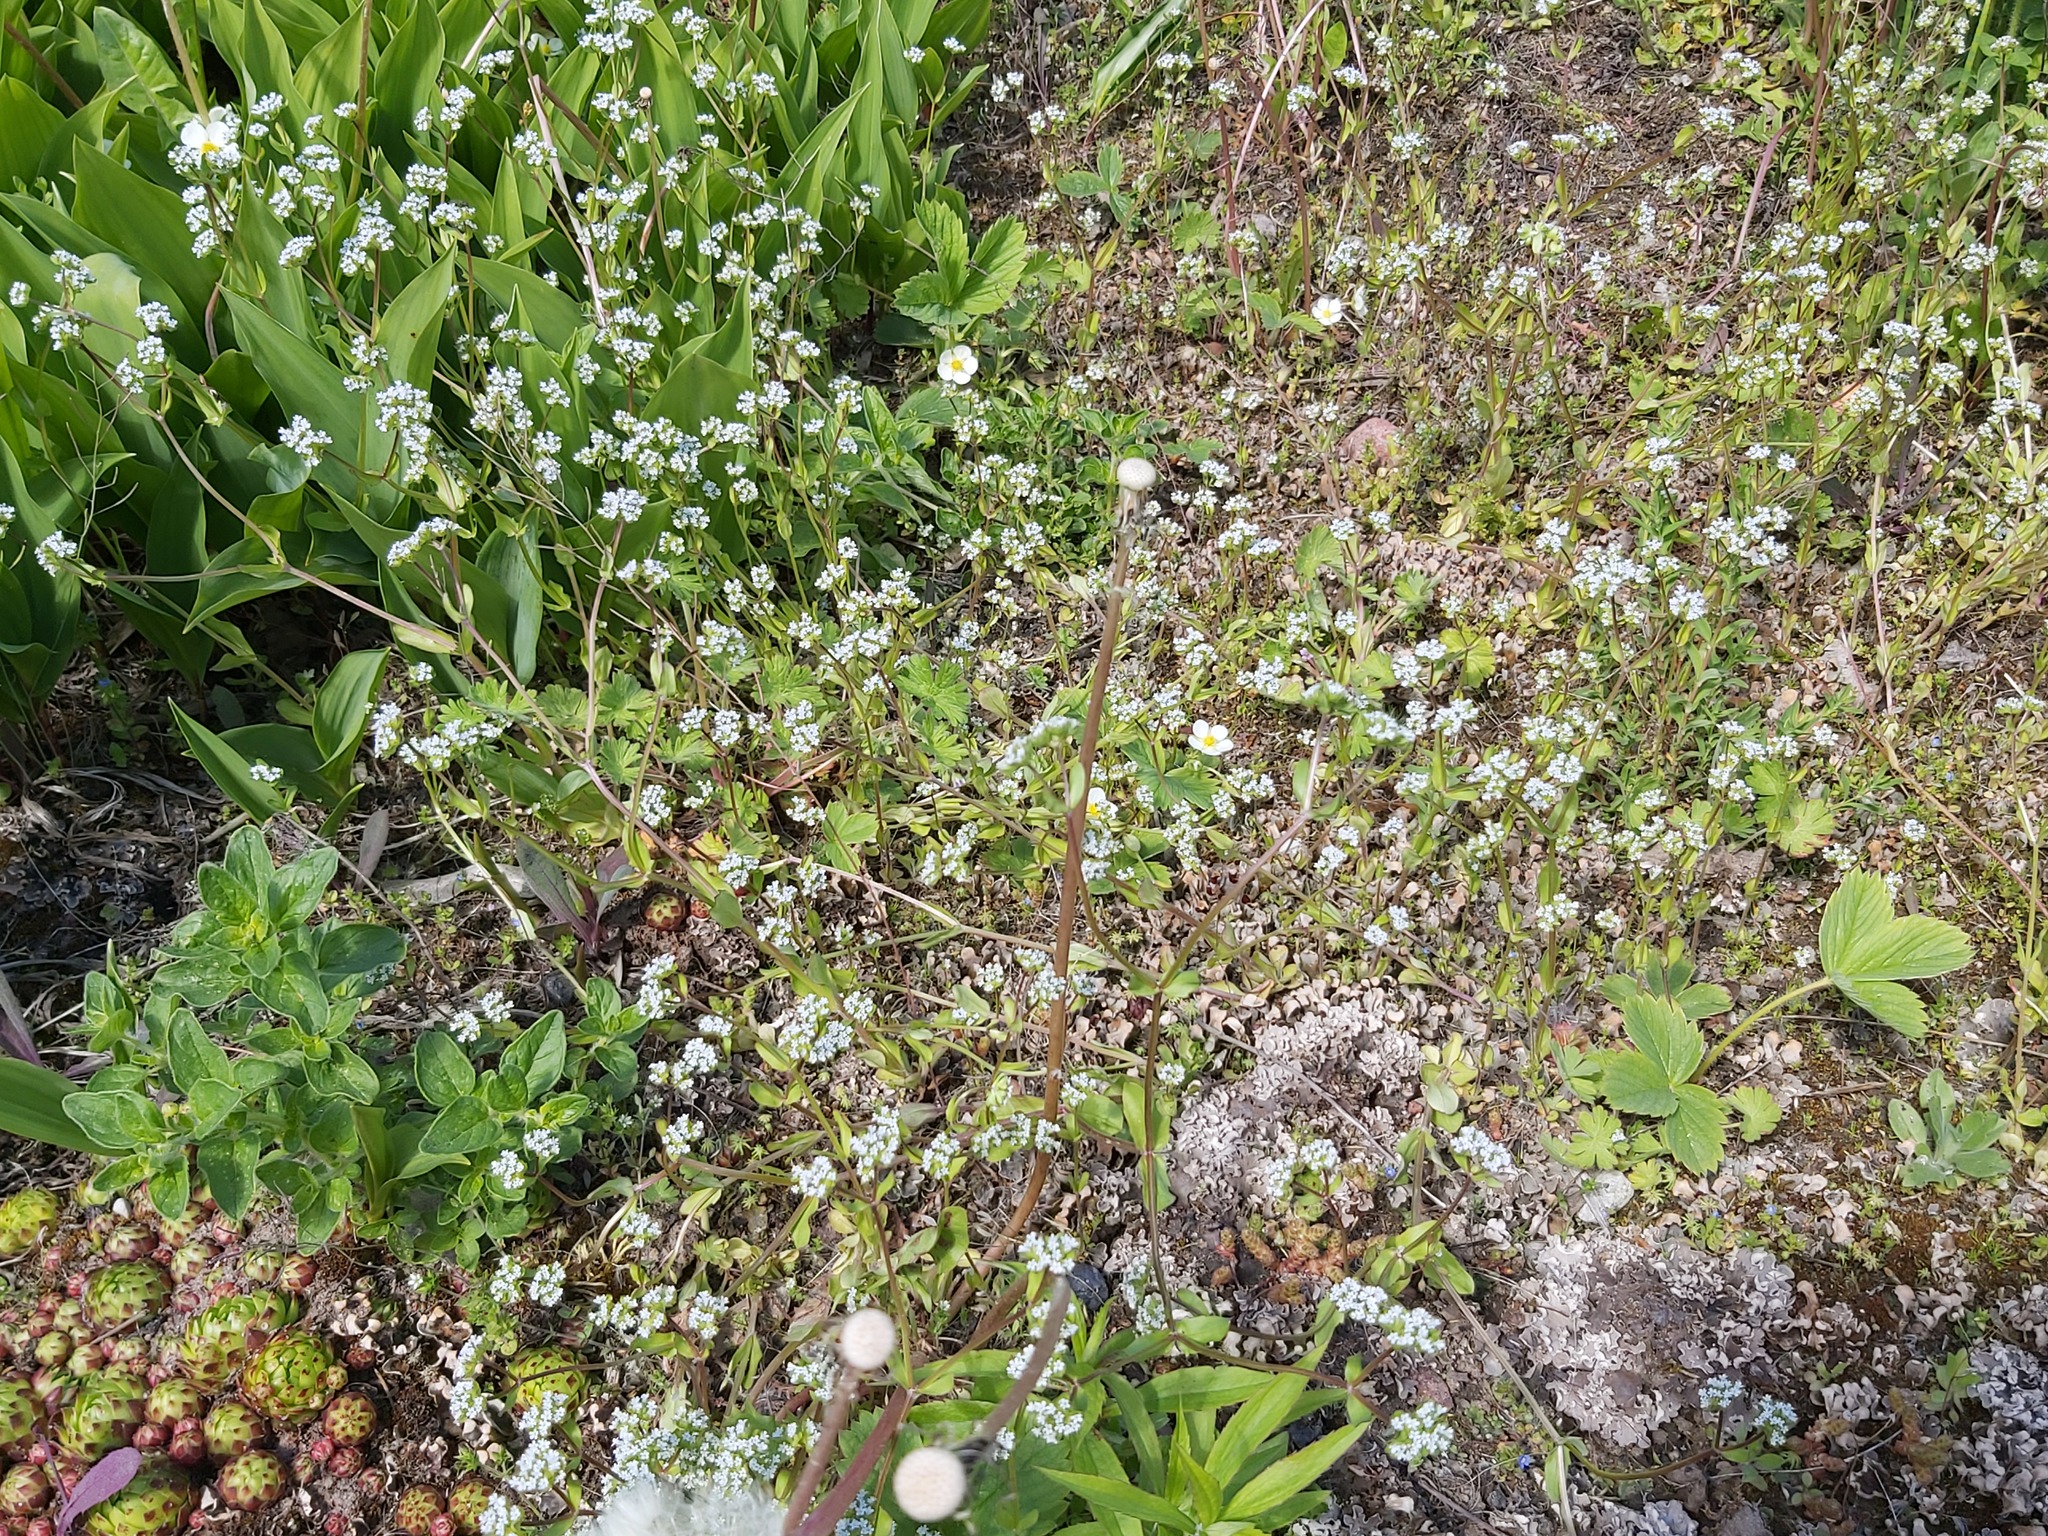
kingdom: Plantae
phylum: Tracheophyta
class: Magnoliopsida
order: Dipsacales
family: Caprifoliaceae
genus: Valerianella
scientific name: Valerianella locusta
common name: Common cornsalad
